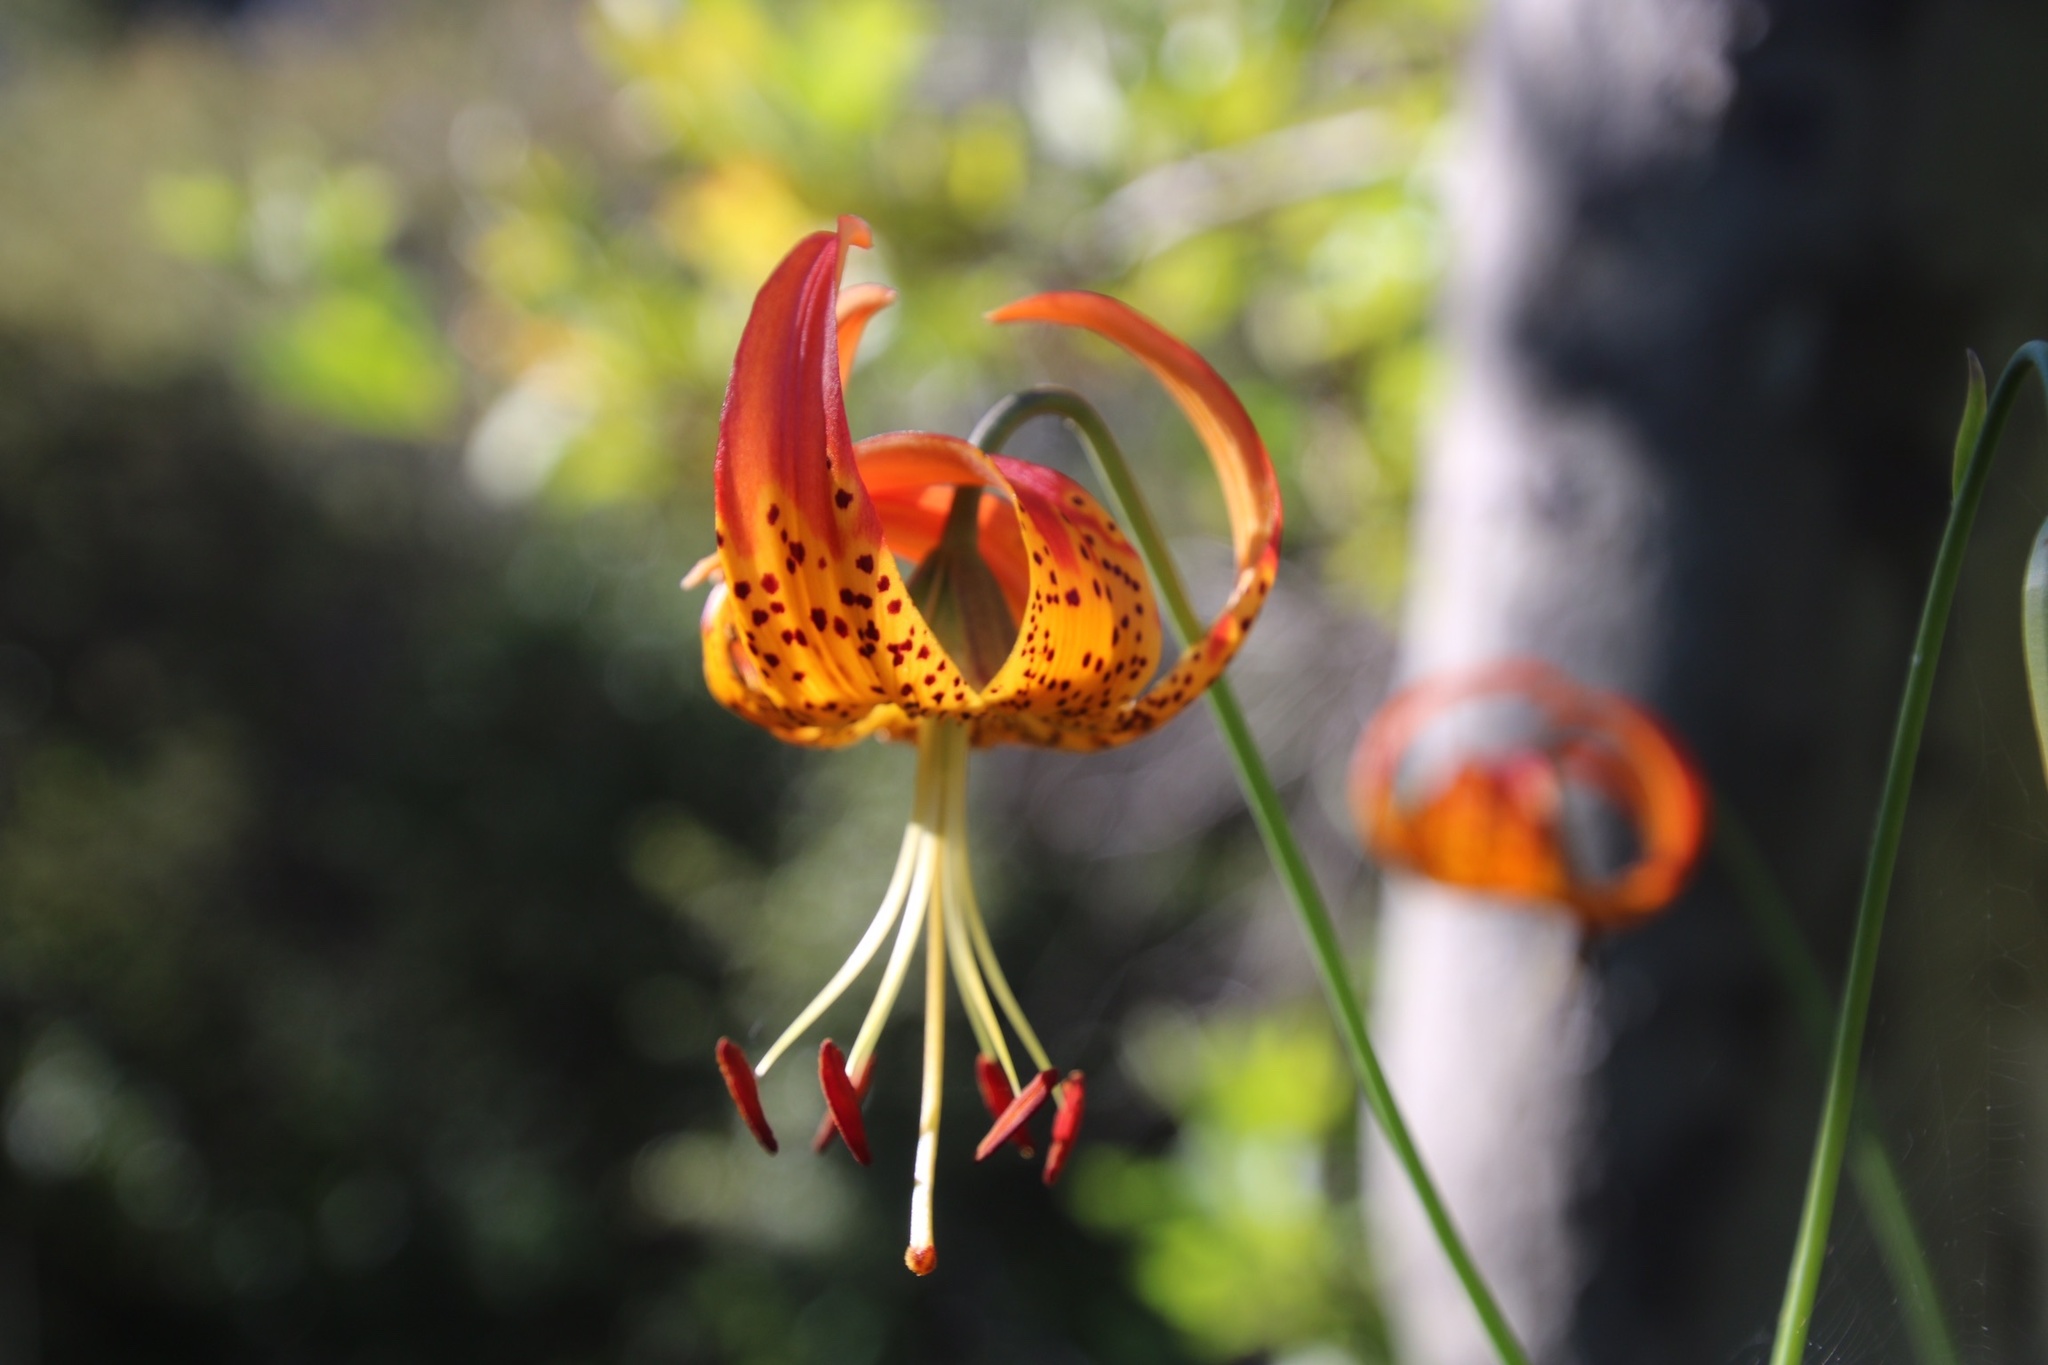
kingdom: Plantae
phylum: Tracheophyta
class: Liliopsida
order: Liliales
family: Liliaceae
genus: Lilium
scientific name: Lilium pardalinum
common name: Panther lily
